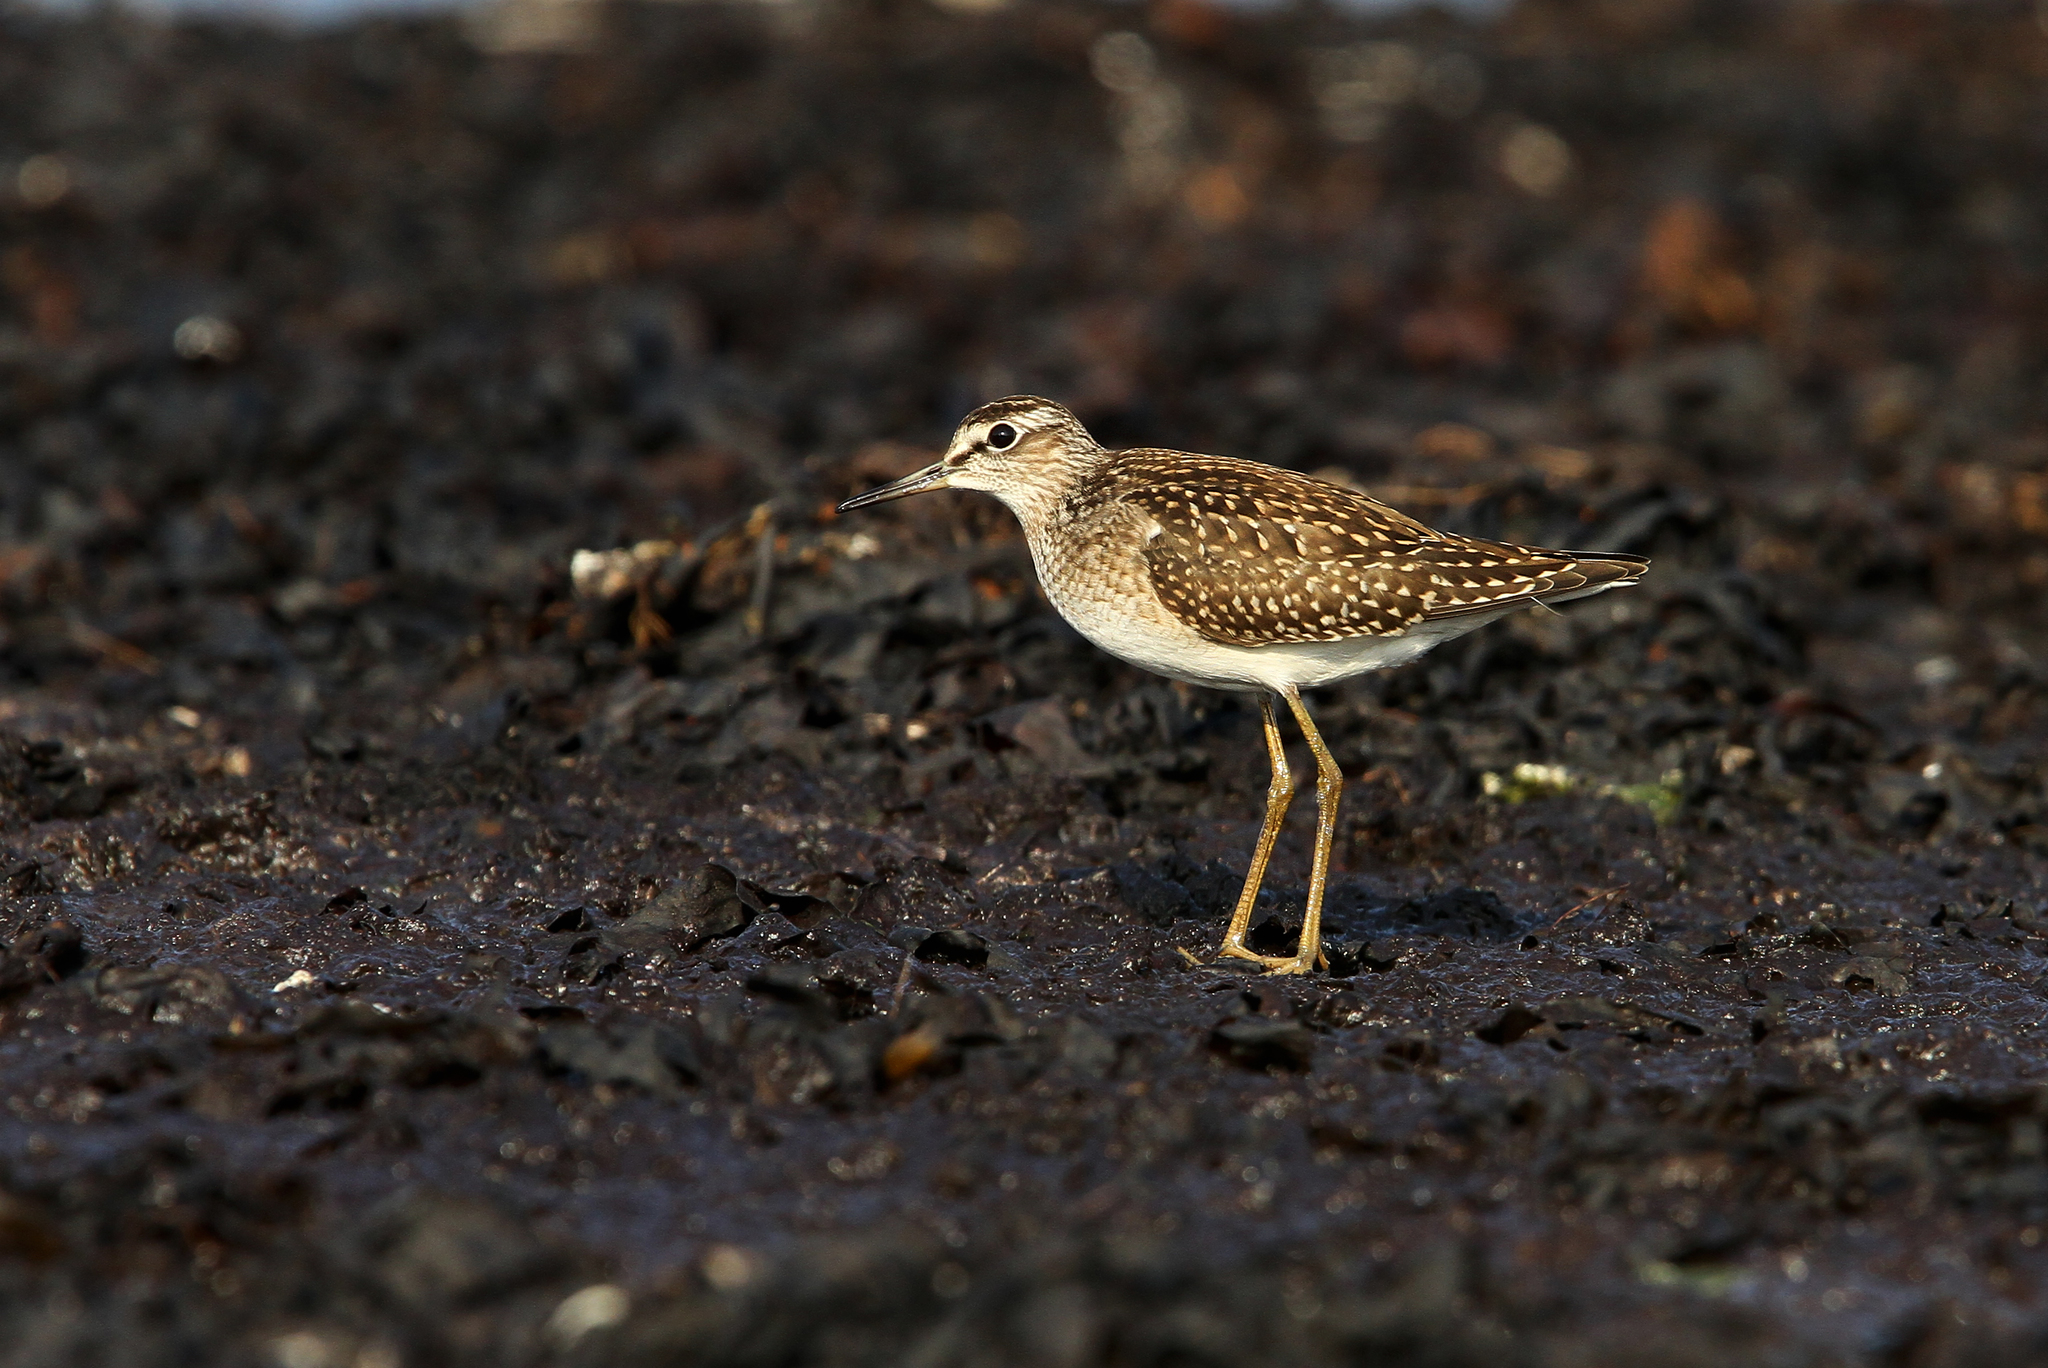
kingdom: Animalia
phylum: Chordata
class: Aves
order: Charadriiformes
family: Scolopacidae
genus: Tringa
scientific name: Tringa glareola
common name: Wood sandpiper
